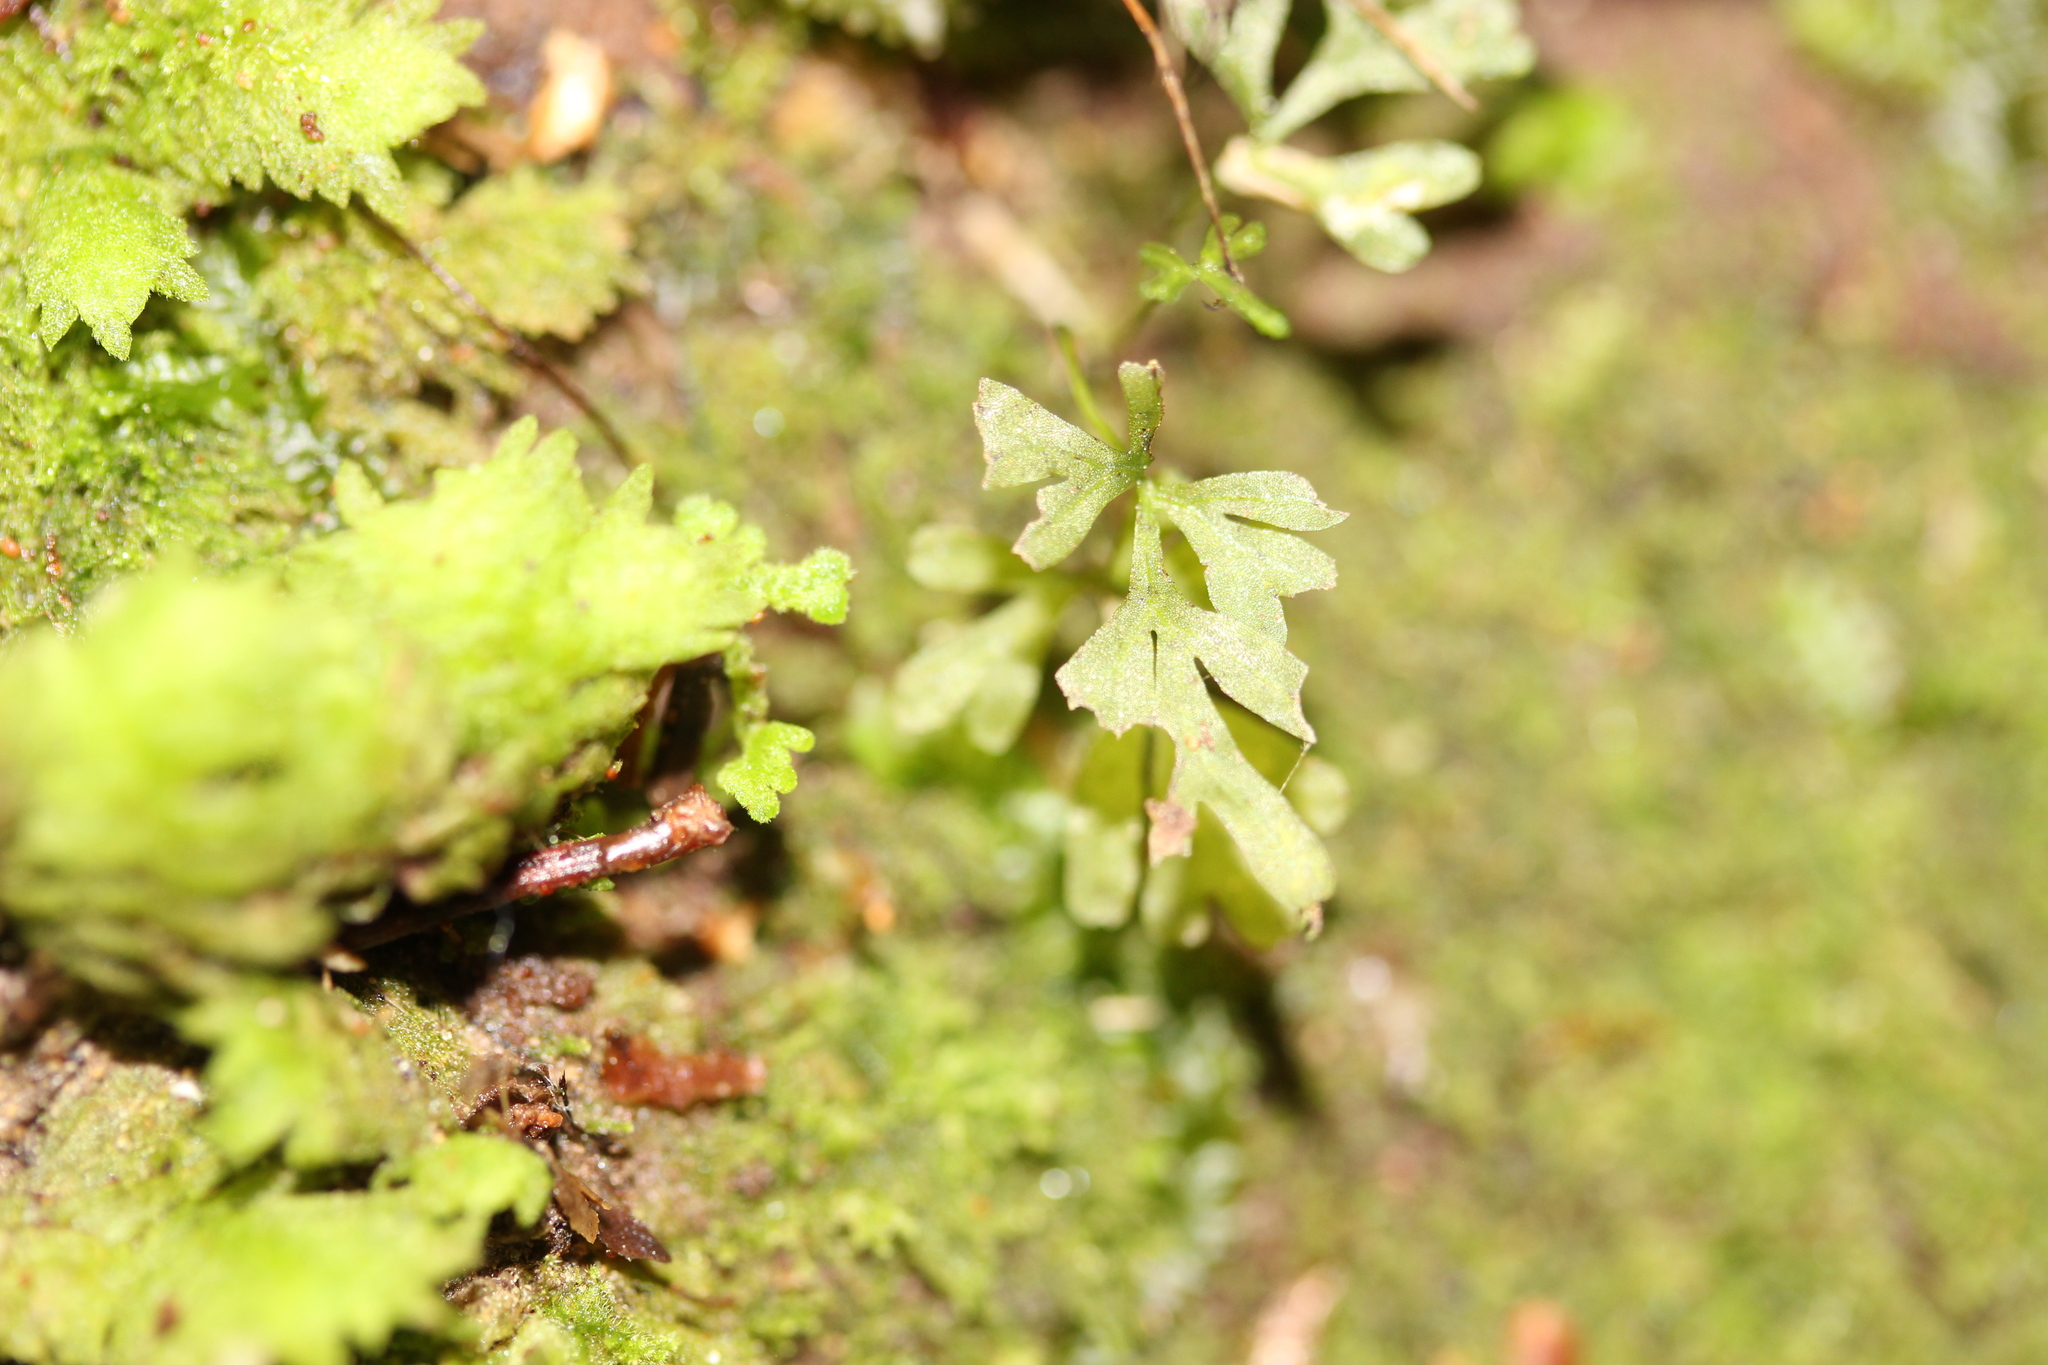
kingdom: Plantae
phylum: Marchantiophyta
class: Jungermanniopsida
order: Pallaviciniales
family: Hymenophytaceae
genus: Hymenophyton
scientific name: Hymenophyton flabellatum
